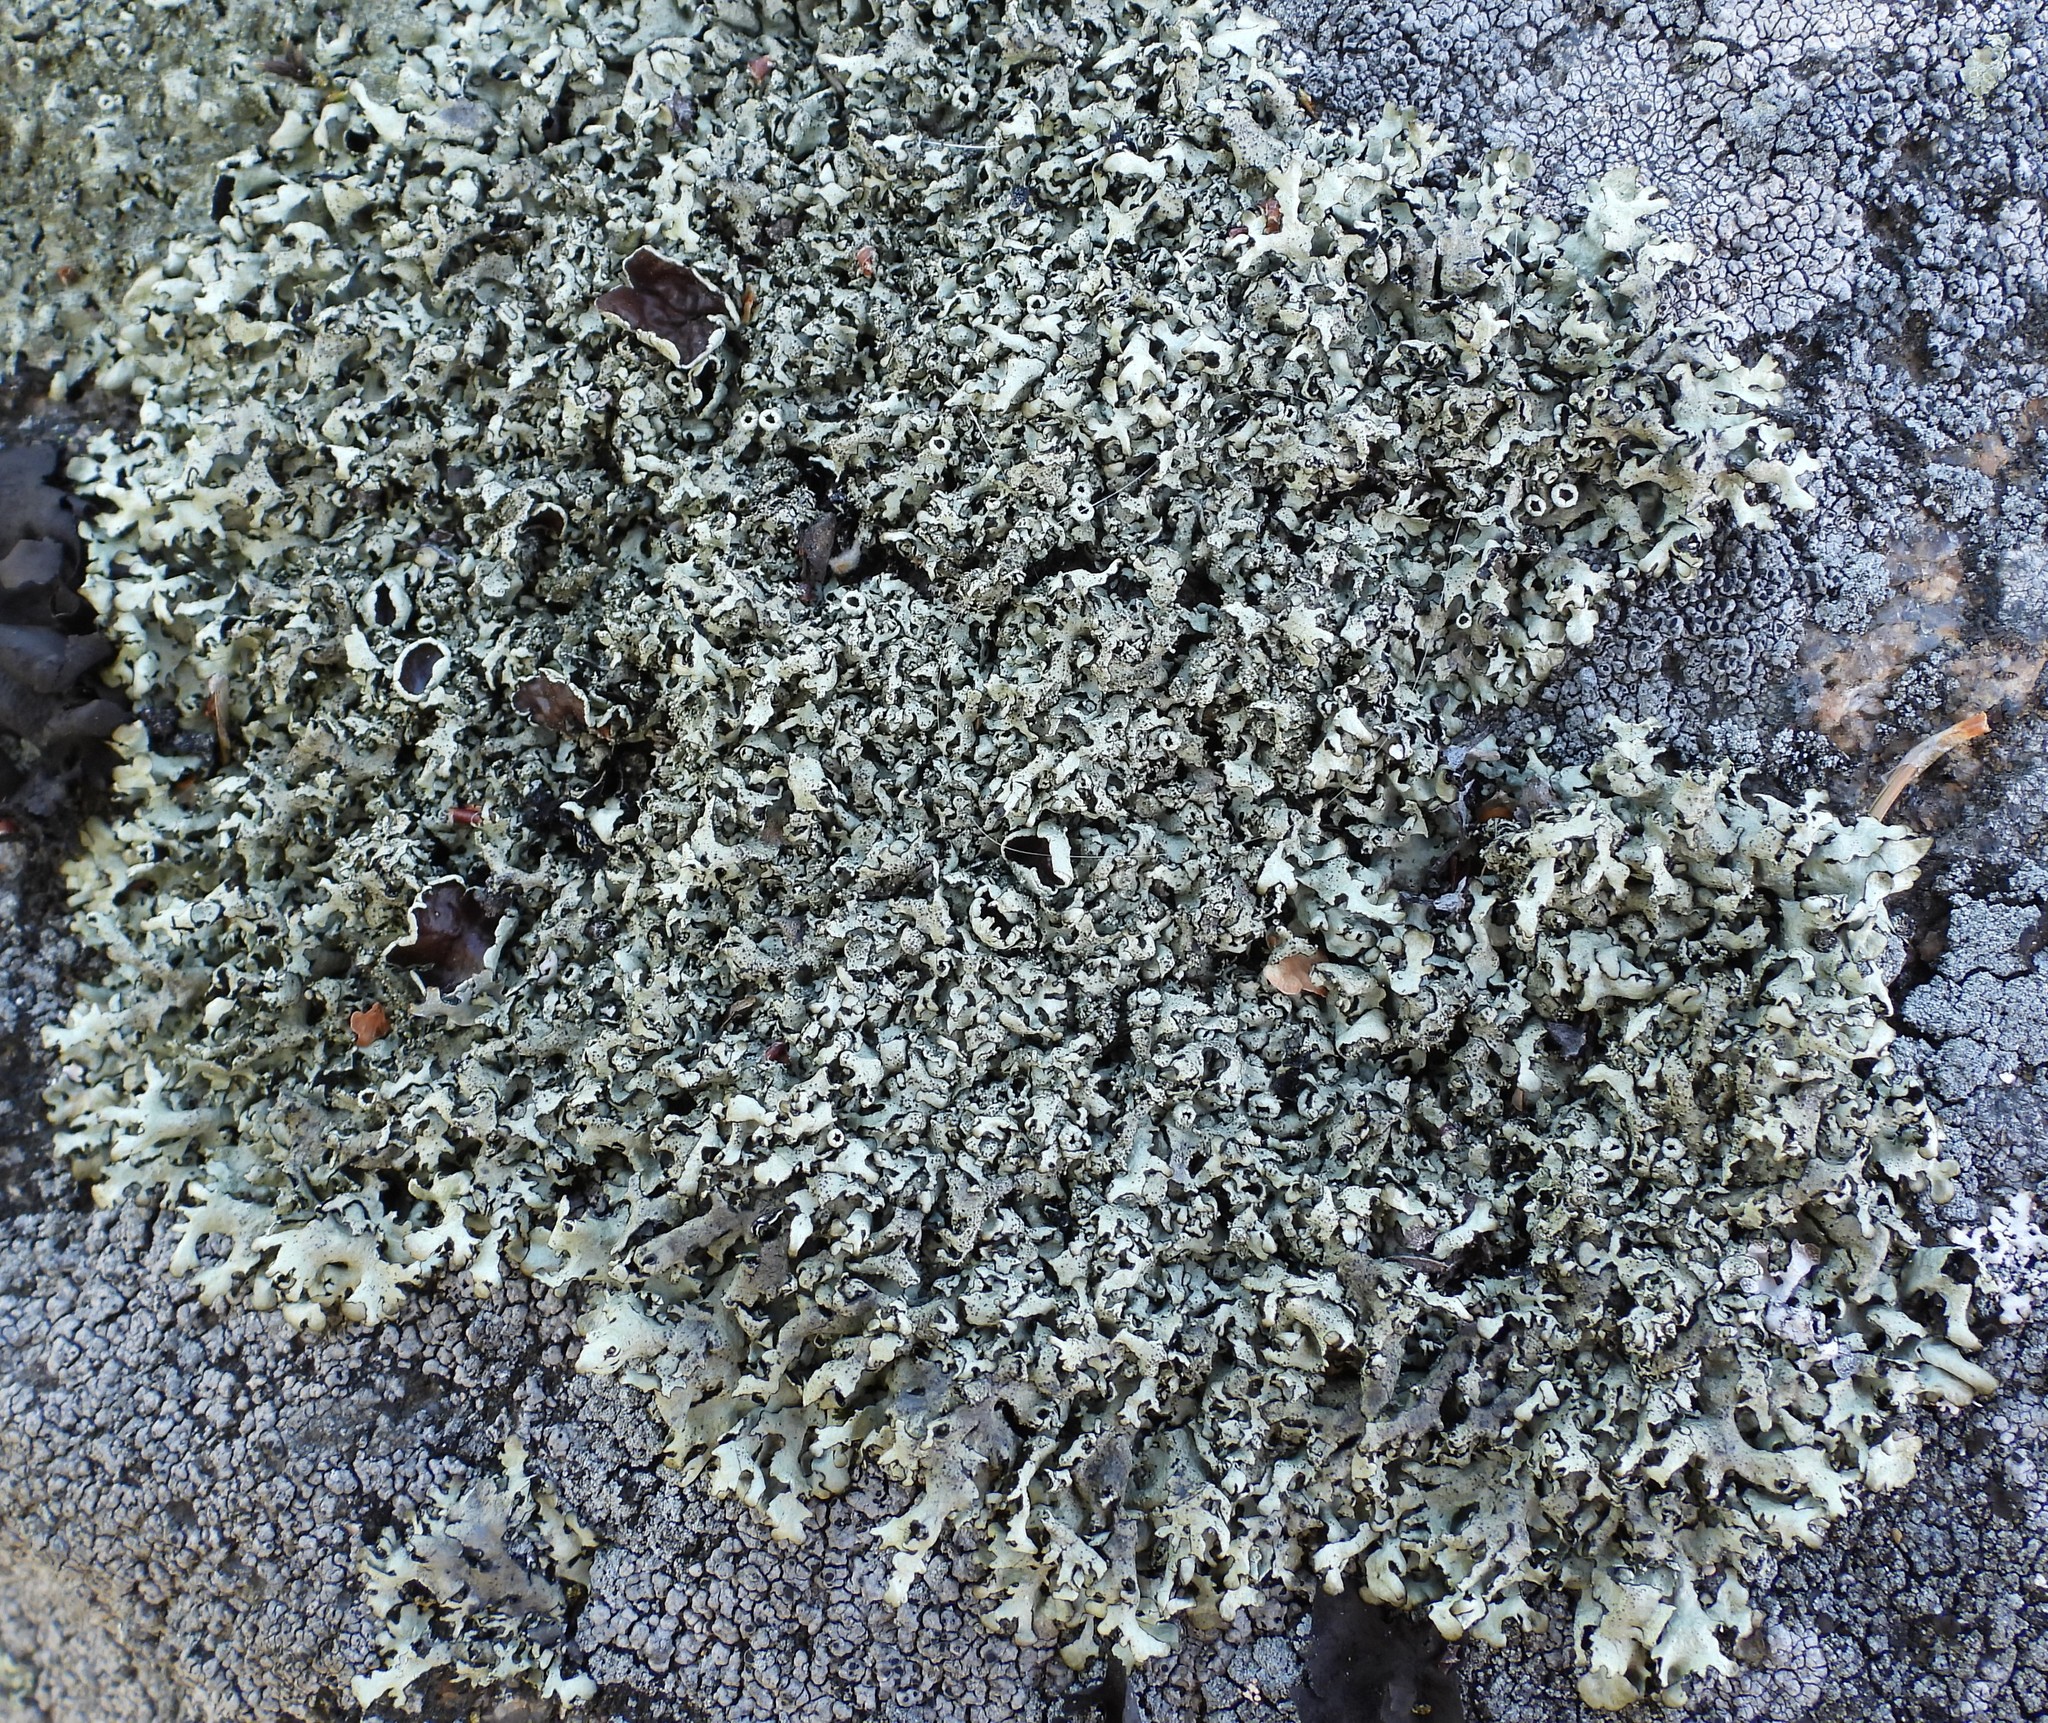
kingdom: Fungi
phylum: Ascomycota
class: Lecanoromycetes
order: Lecanorales
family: Parmeliaceae
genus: Xanthoparmelia
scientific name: Xanthoparmelia stenophylla
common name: Shingled rock shield
